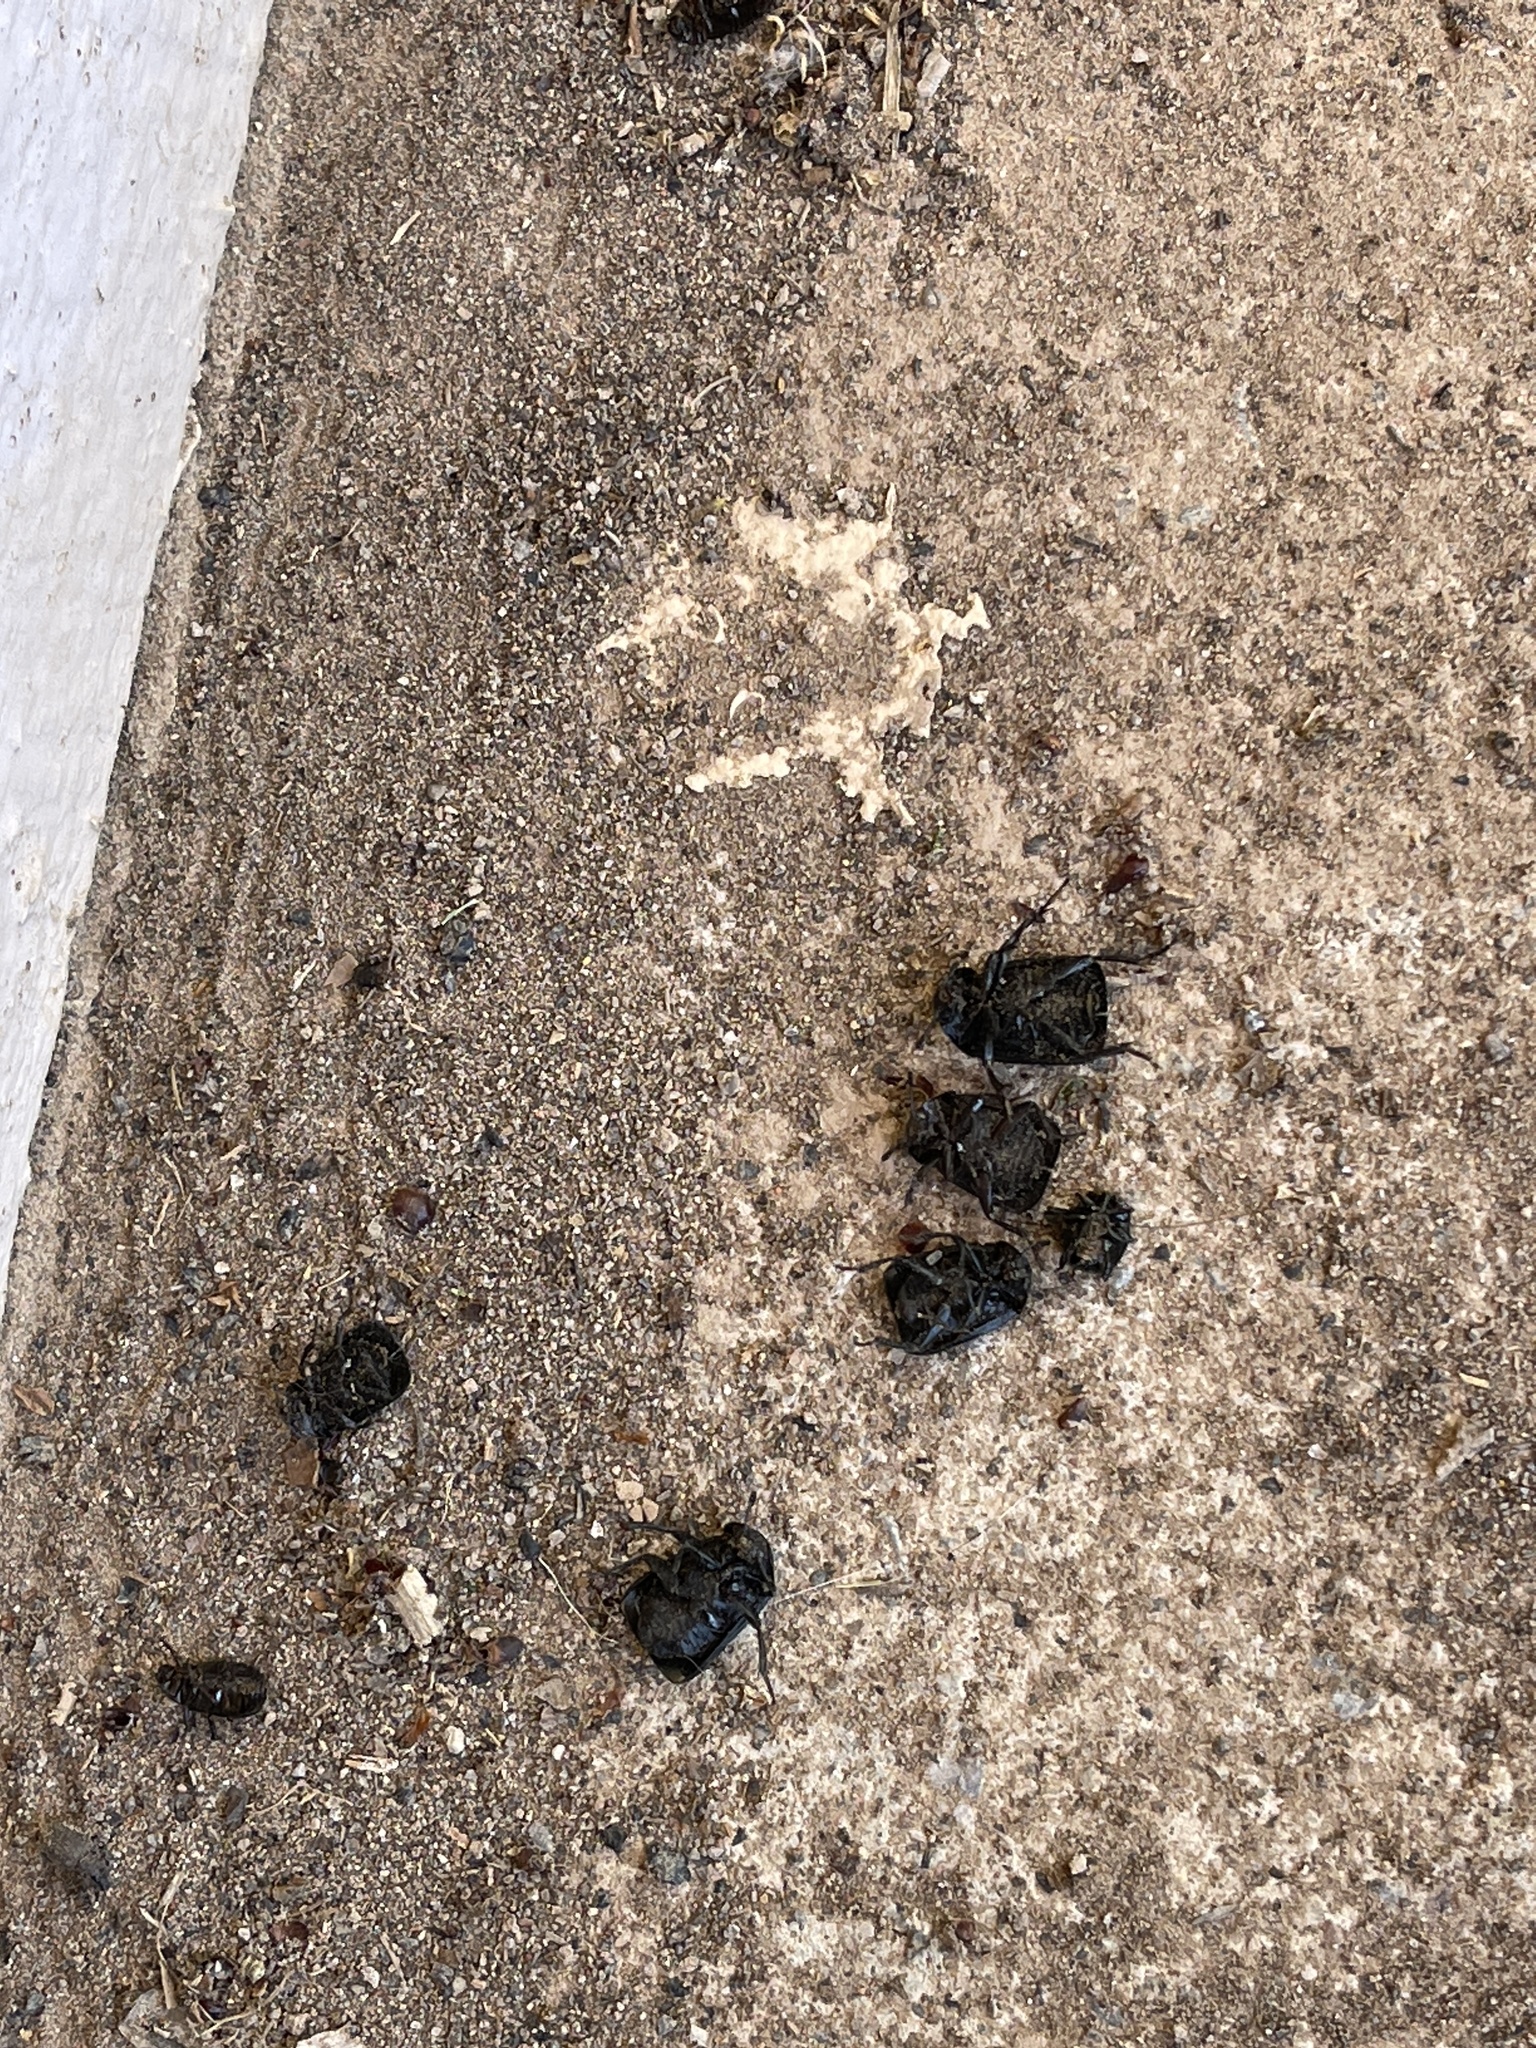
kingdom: Animalia
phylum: Arthropoda
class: Insecta
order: Coleoptera
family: Staphylinidae
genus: Thanatophilus
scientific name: Thanatophilus truncatus
